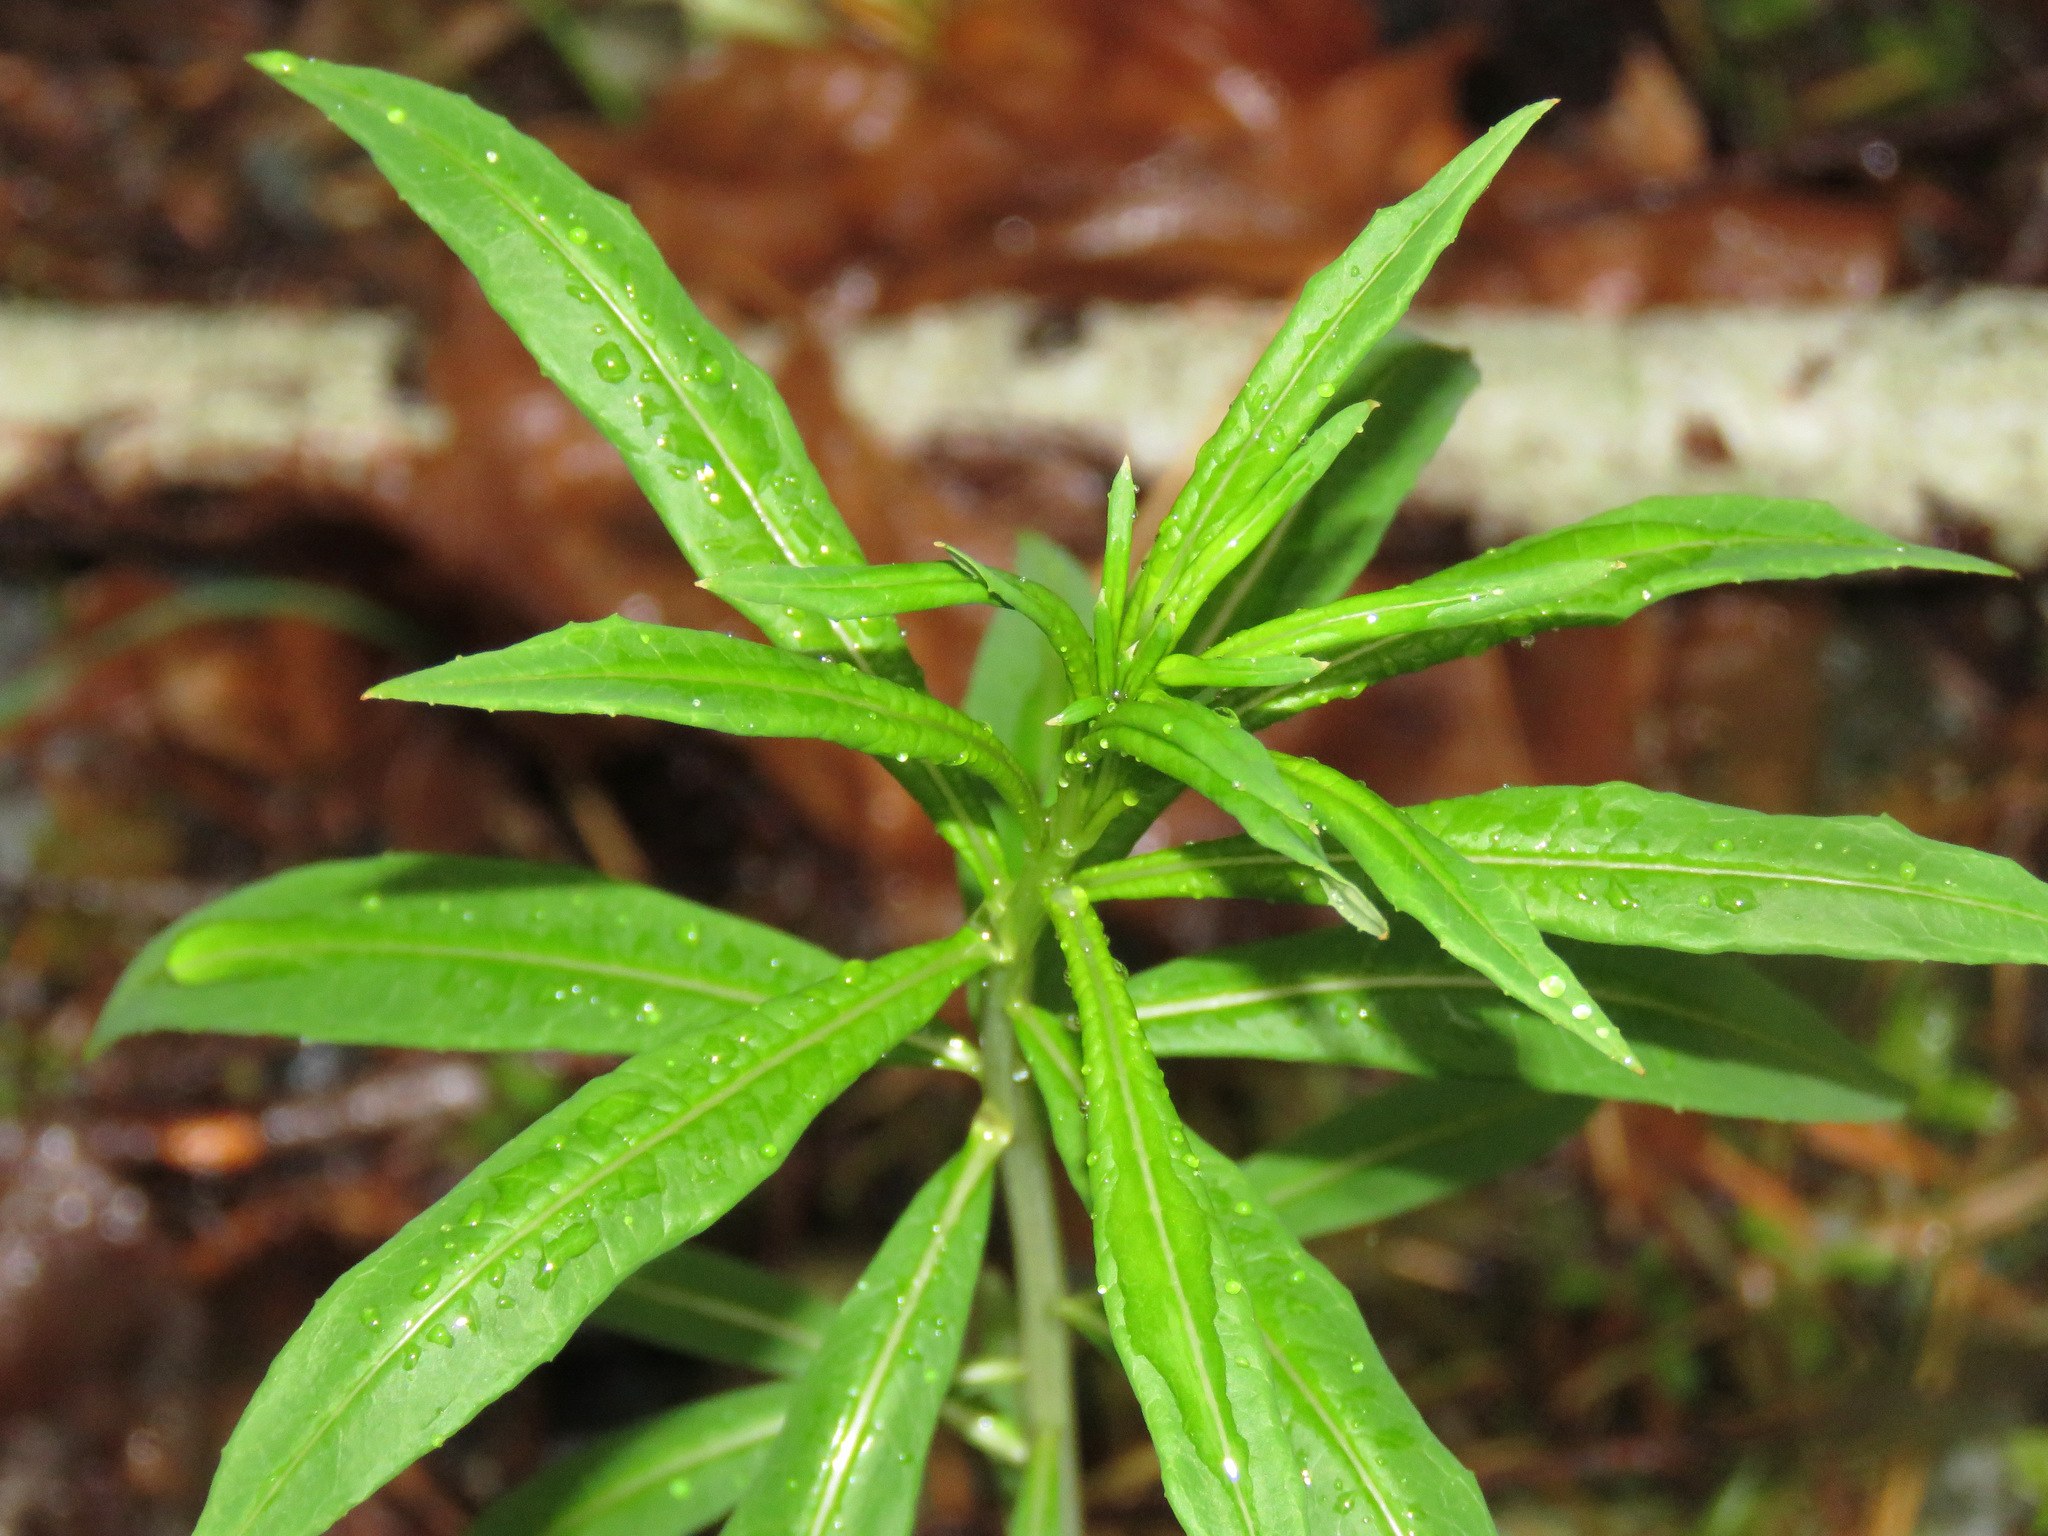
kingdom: Plantae
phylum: Tracheophyta
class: Magnoliopsida
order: Myrtales
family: Onagraceae
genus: Chamaenerion
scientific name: Chamaenerion angustifolium
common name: Fireweed
